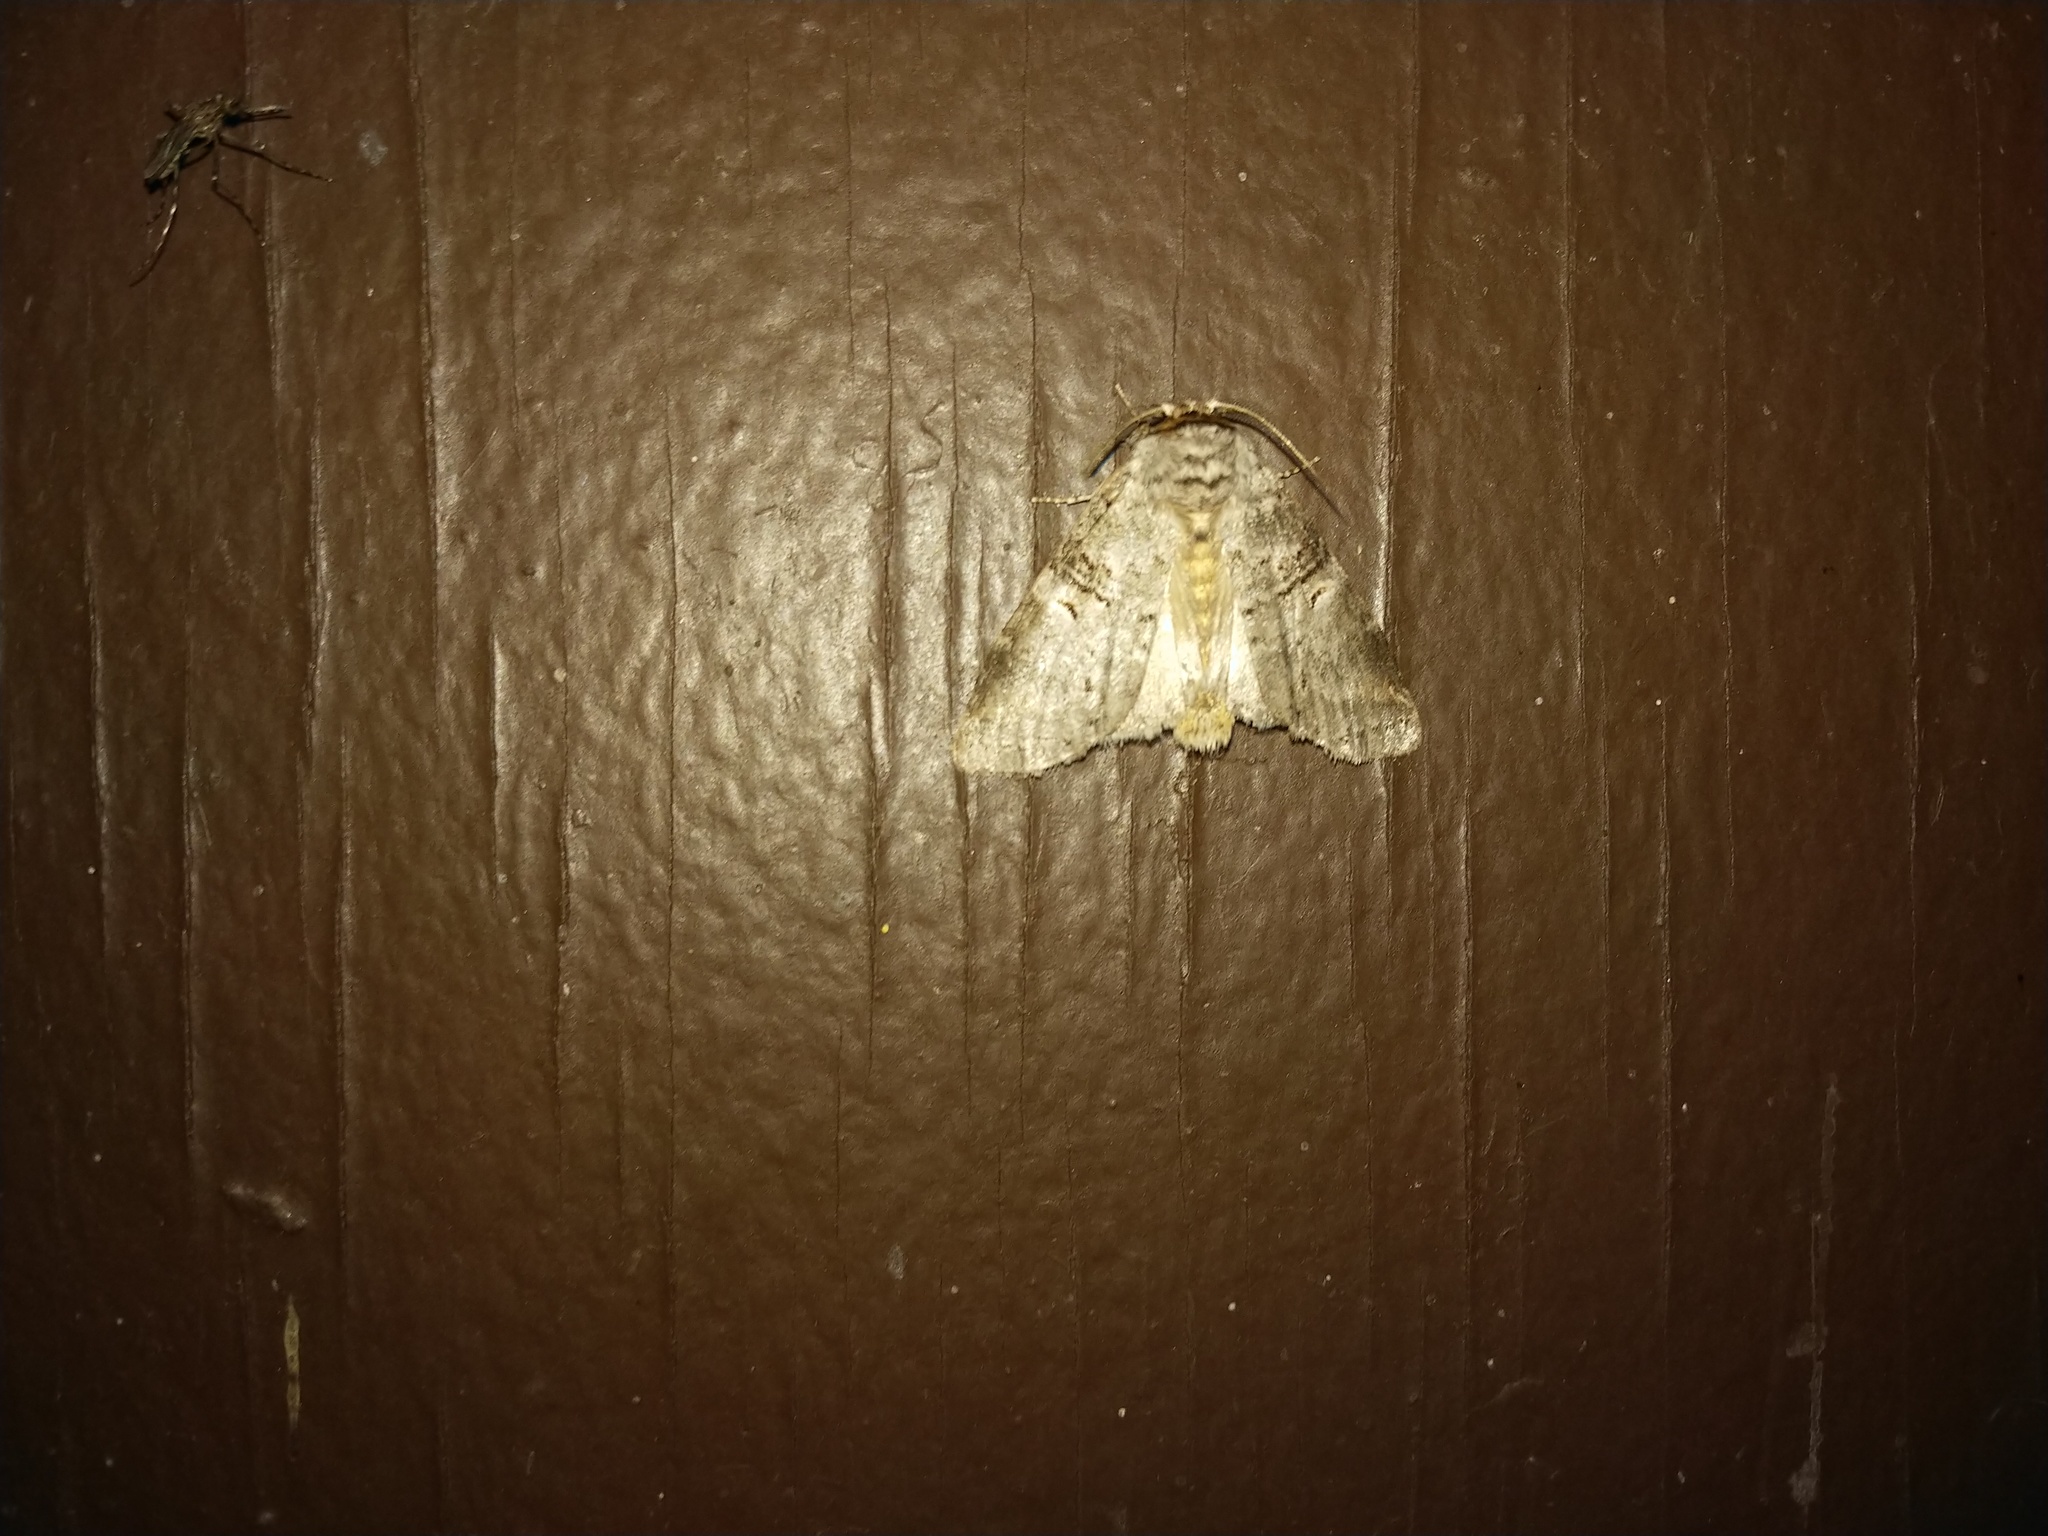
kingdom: Animalia
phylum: Arthropoda
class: Insecta
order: Lepidoptera
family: Notodontidae
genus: Symmerista
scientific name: Symmerista albifrons
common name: White-headed prominent
